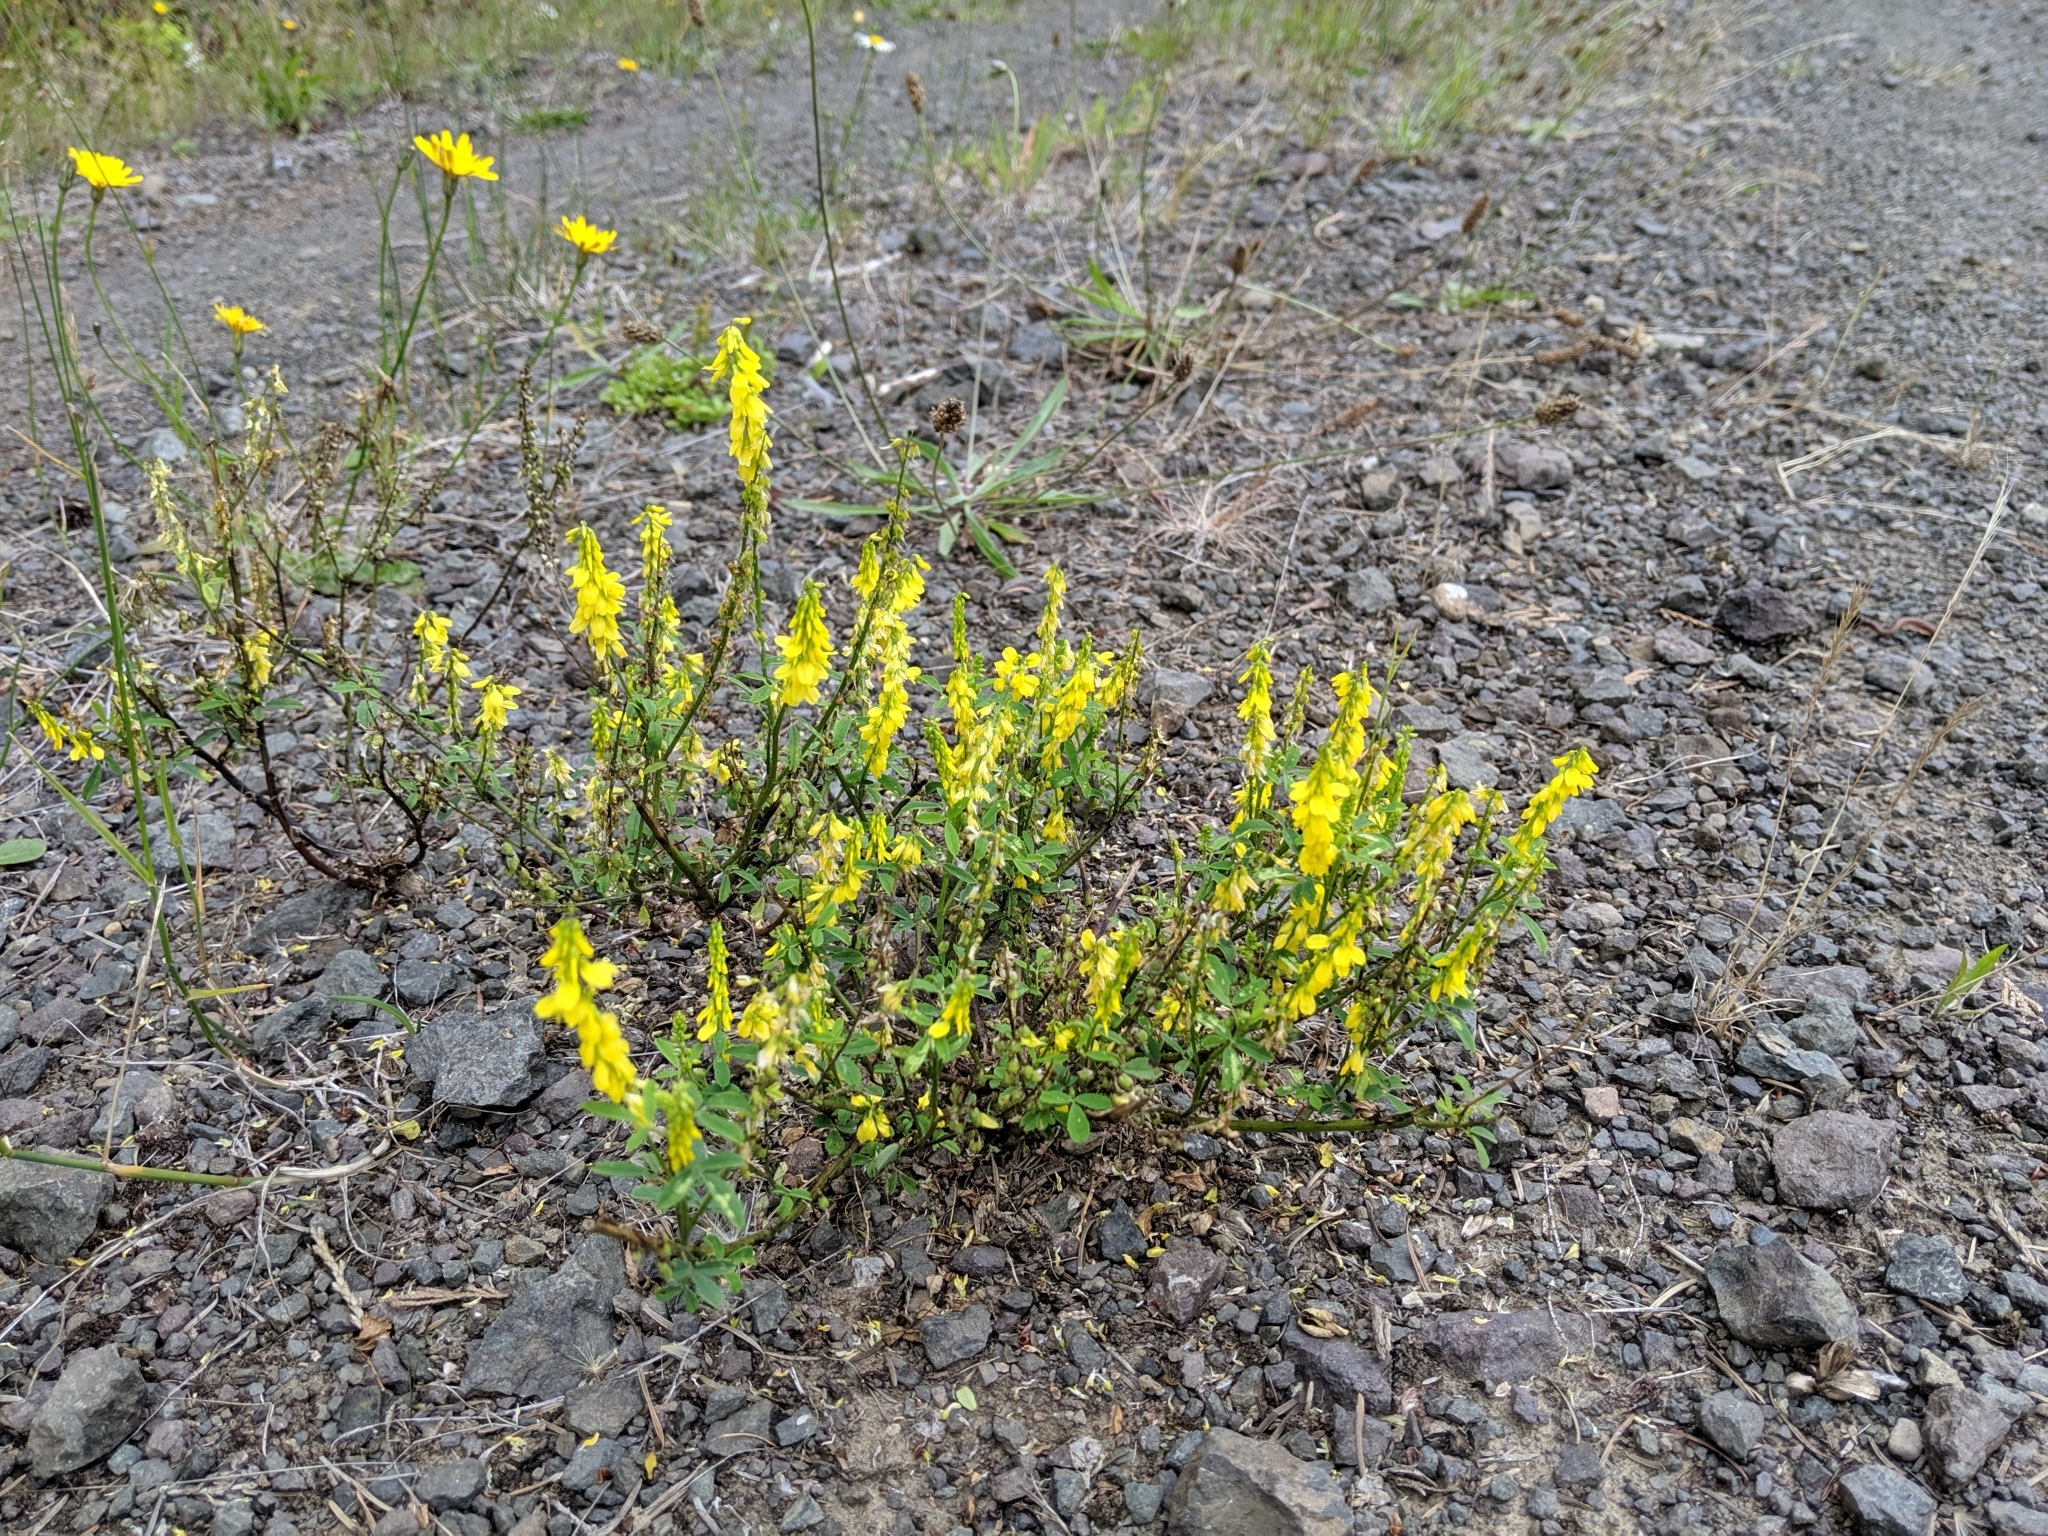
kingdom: Plantae
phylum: Tracheophyta
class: Magnoliopsida
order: Fabales
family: Fabaceae
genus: Melilotus
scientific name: Melilotus officinalis
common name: Sweetclover
